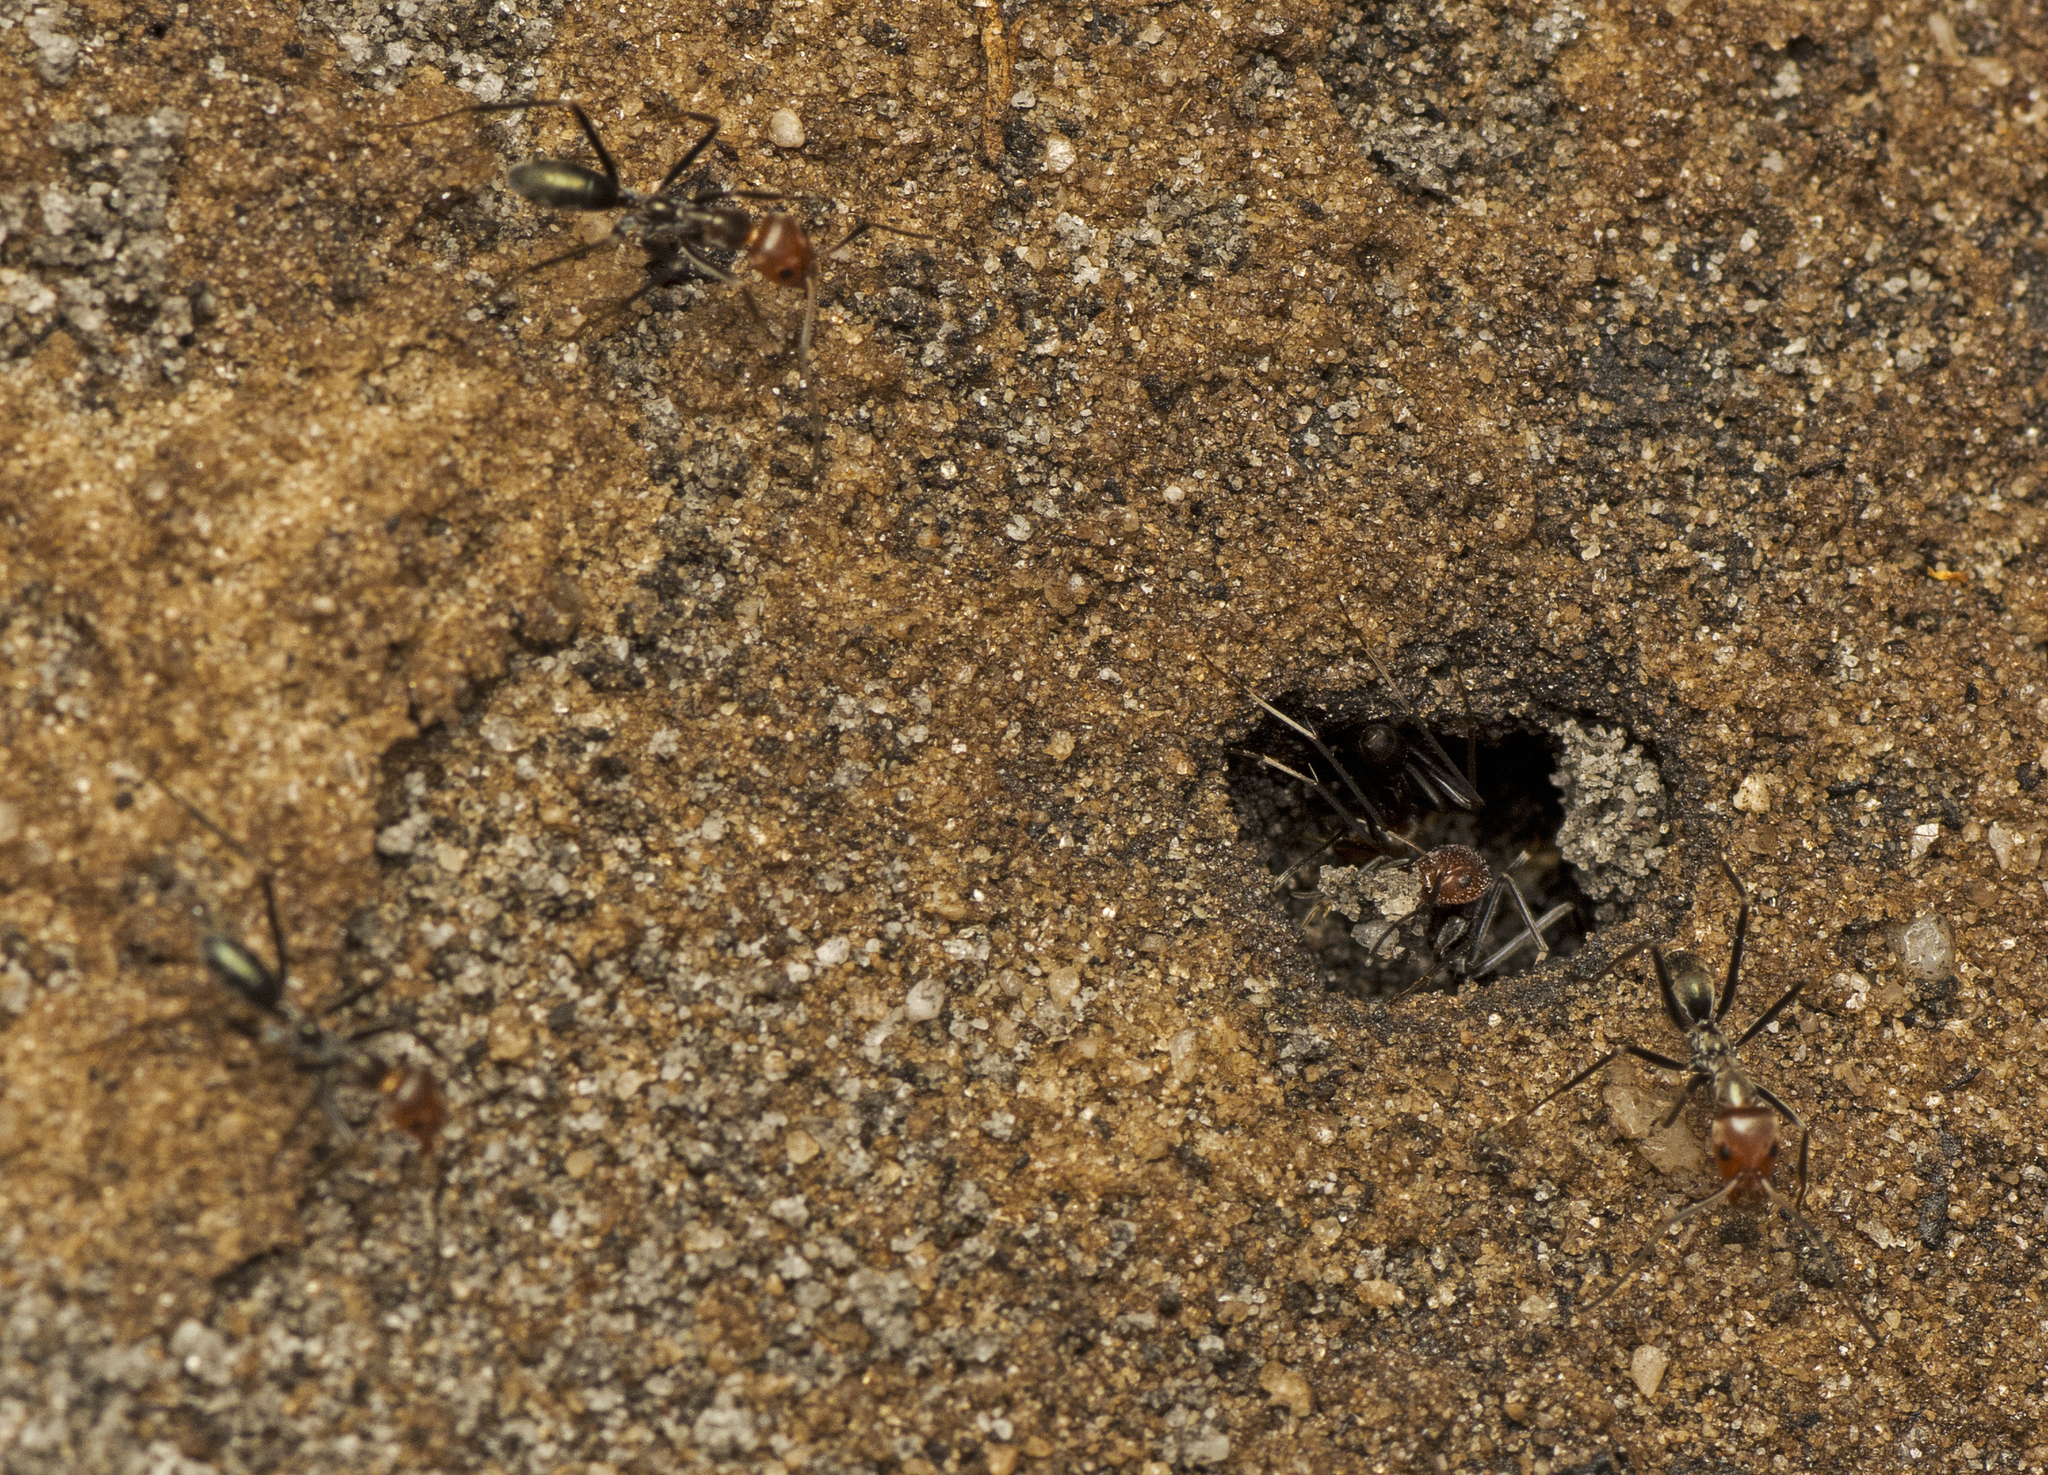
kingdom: Animalia
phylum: Arthropoda
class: Insecta
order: Hymenoptera
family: Formicidae
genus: Iridomyrmex
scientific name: Iridomyrmex
